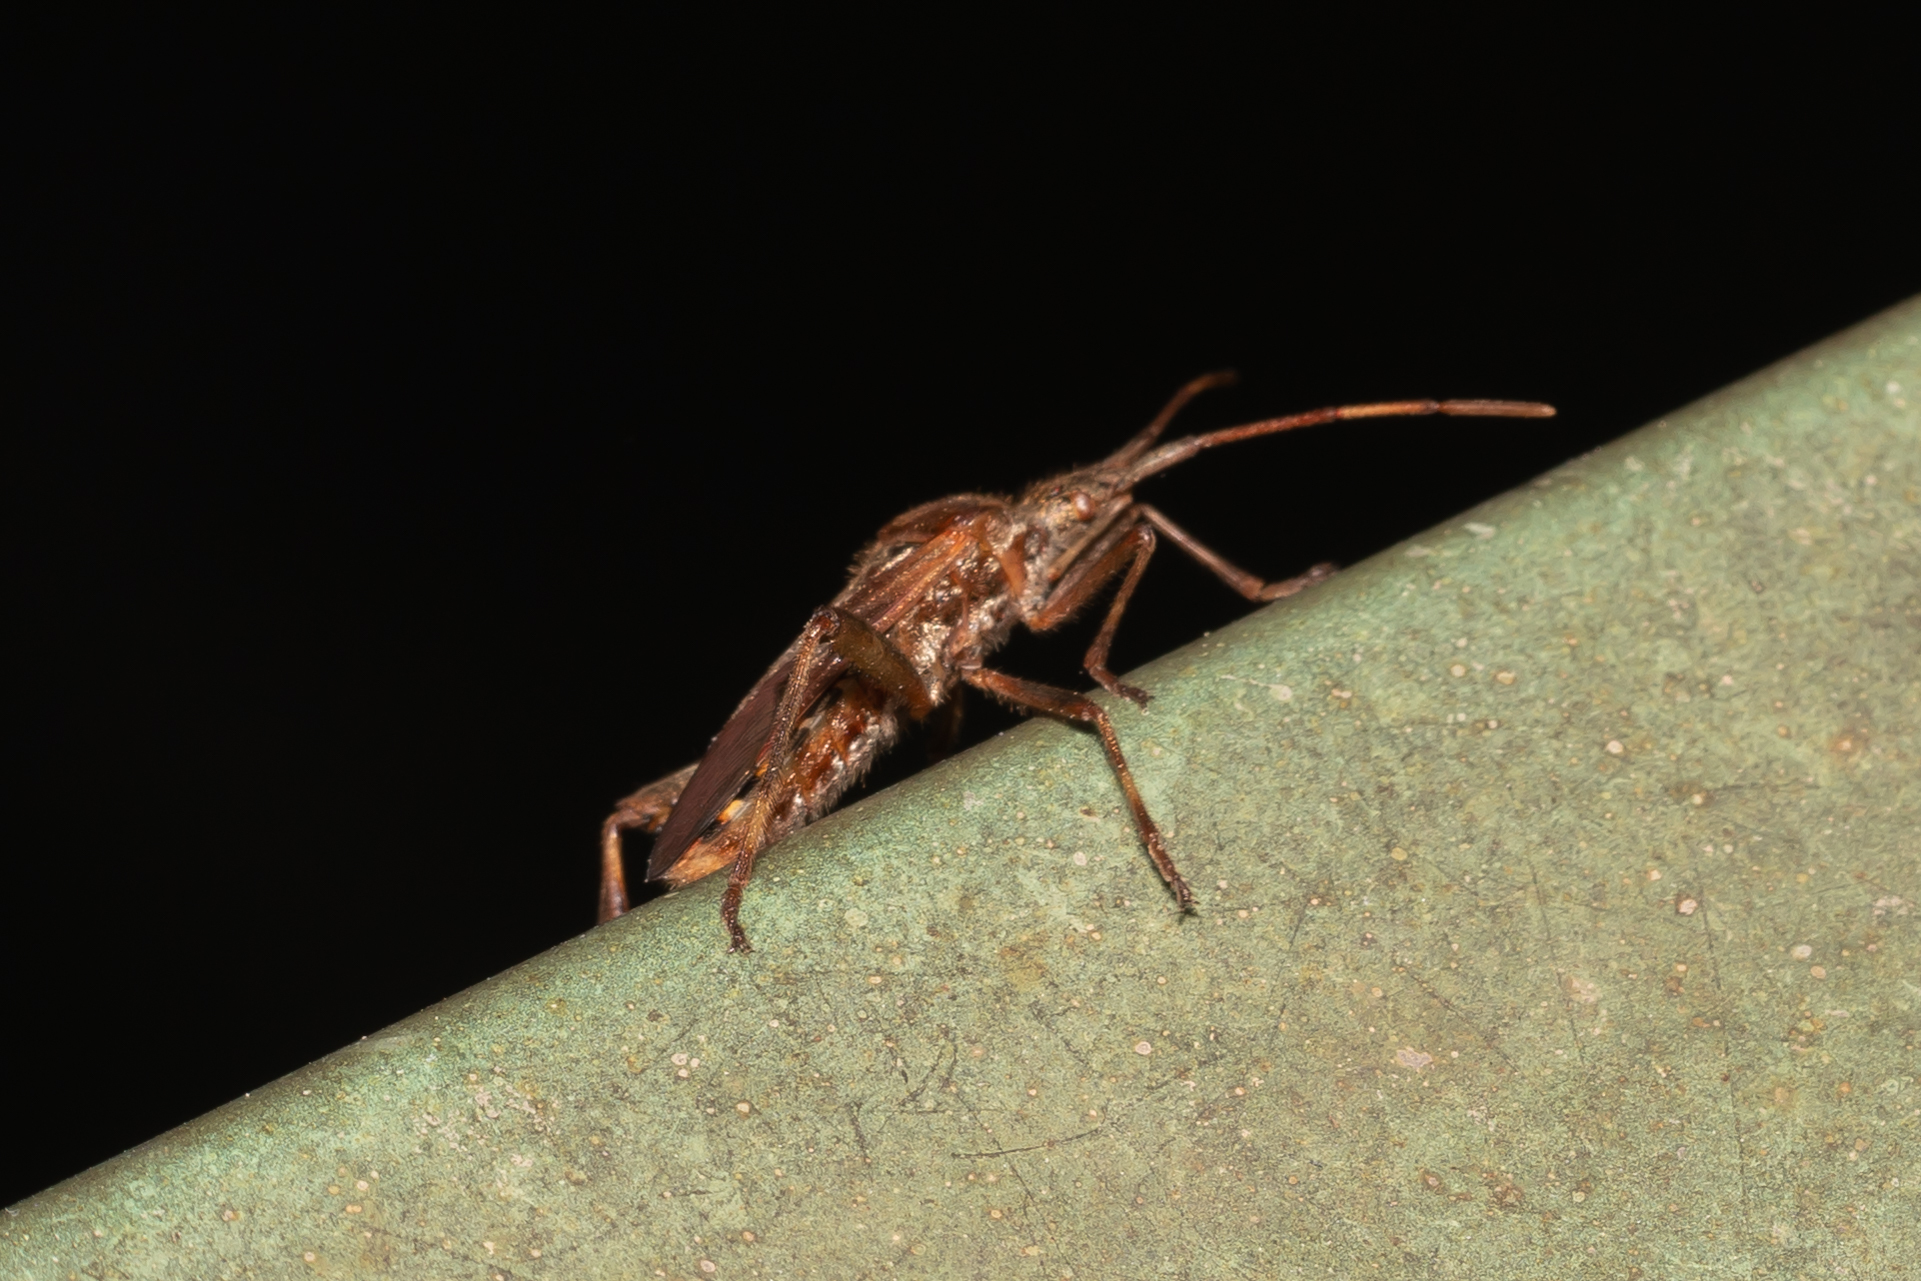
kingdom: Animalia
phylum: Arthropoda
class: Insecta
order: Hemiptera
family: Coreidae
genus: Leptoglossus
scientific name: Leptoglossus occidentalis
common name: Western conifer-seed bug
